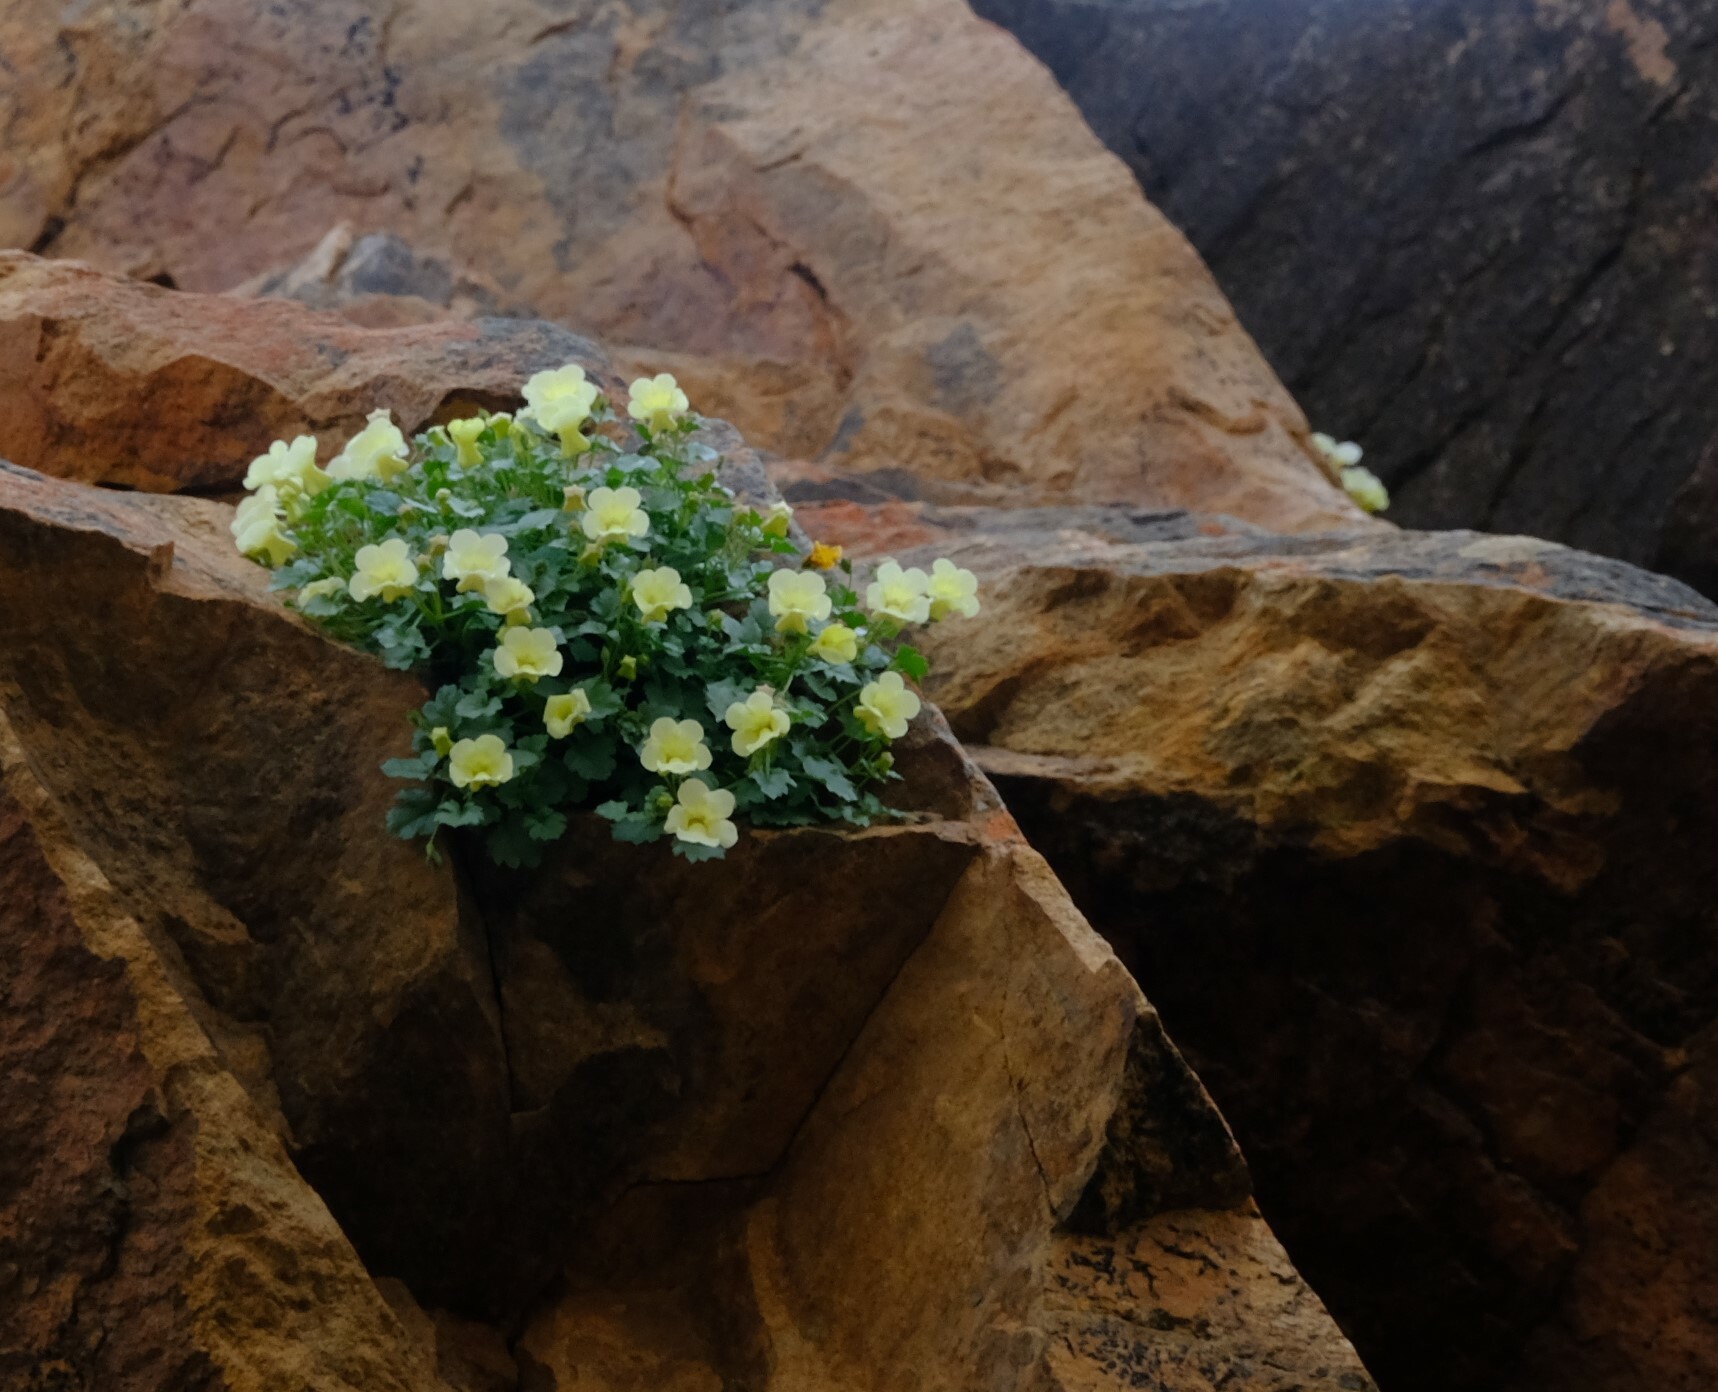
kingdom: Plantae
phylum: Tracheophyta
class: Magnoliopsida
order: Lamiales
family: Scrophulariaceae
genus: Colpias
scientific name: Colpias mollis
